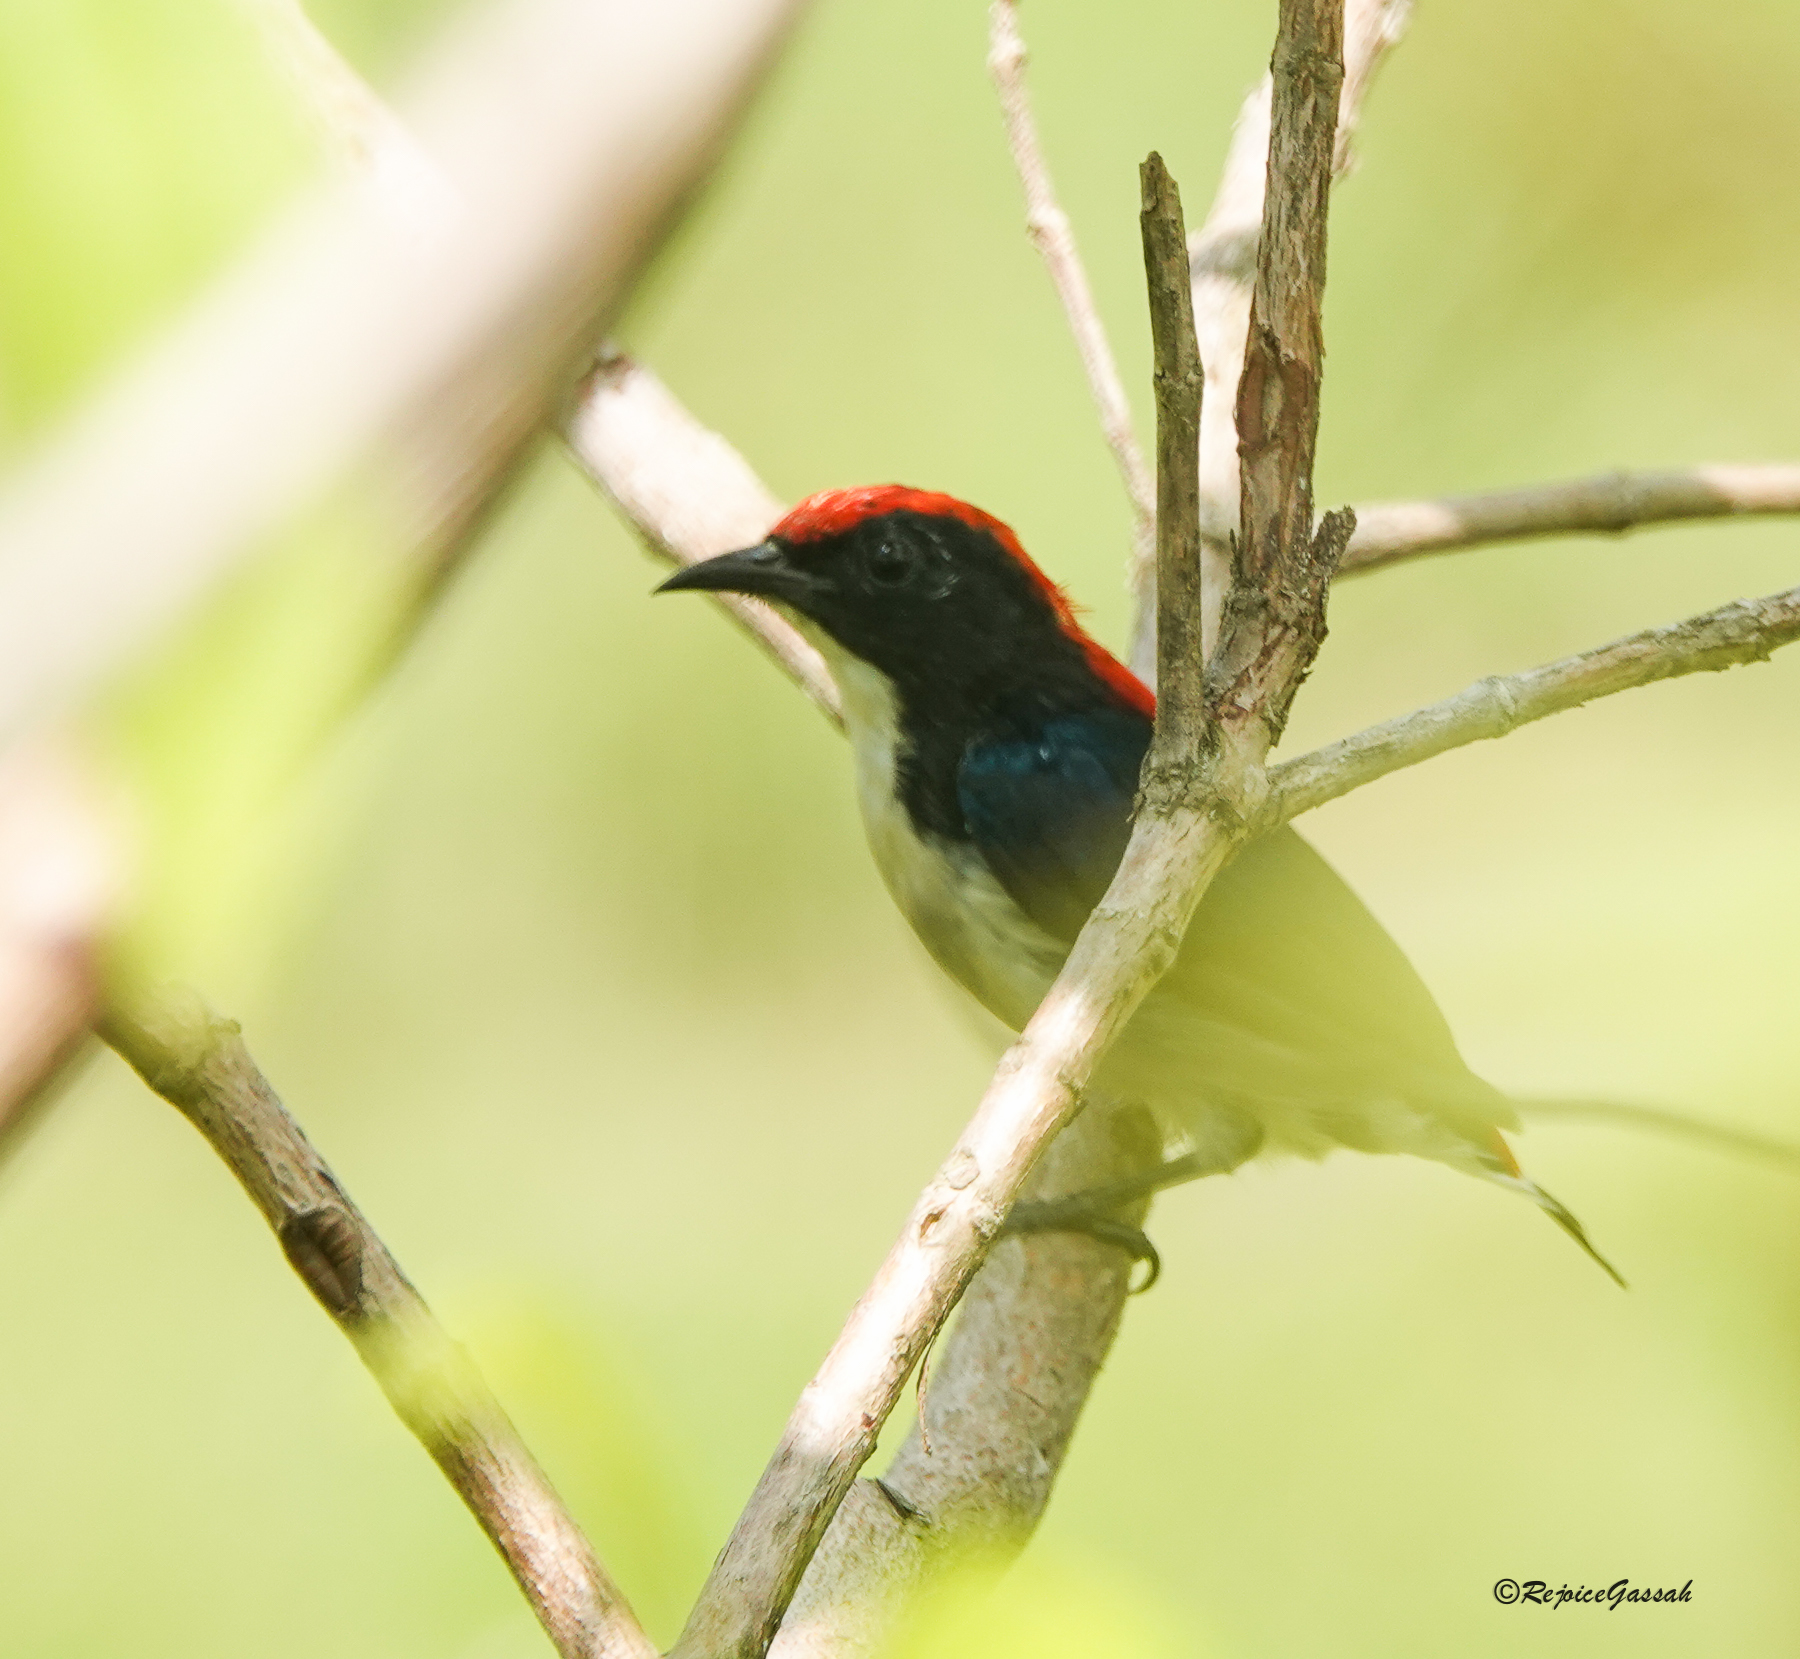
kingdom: Animalia
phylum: Chordata
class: Aves
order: Passeriformes
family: Dicaeidae
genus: Dicaeum
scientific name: Dicaeum cruentatum
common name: Scarlet-backed flowerpecker
